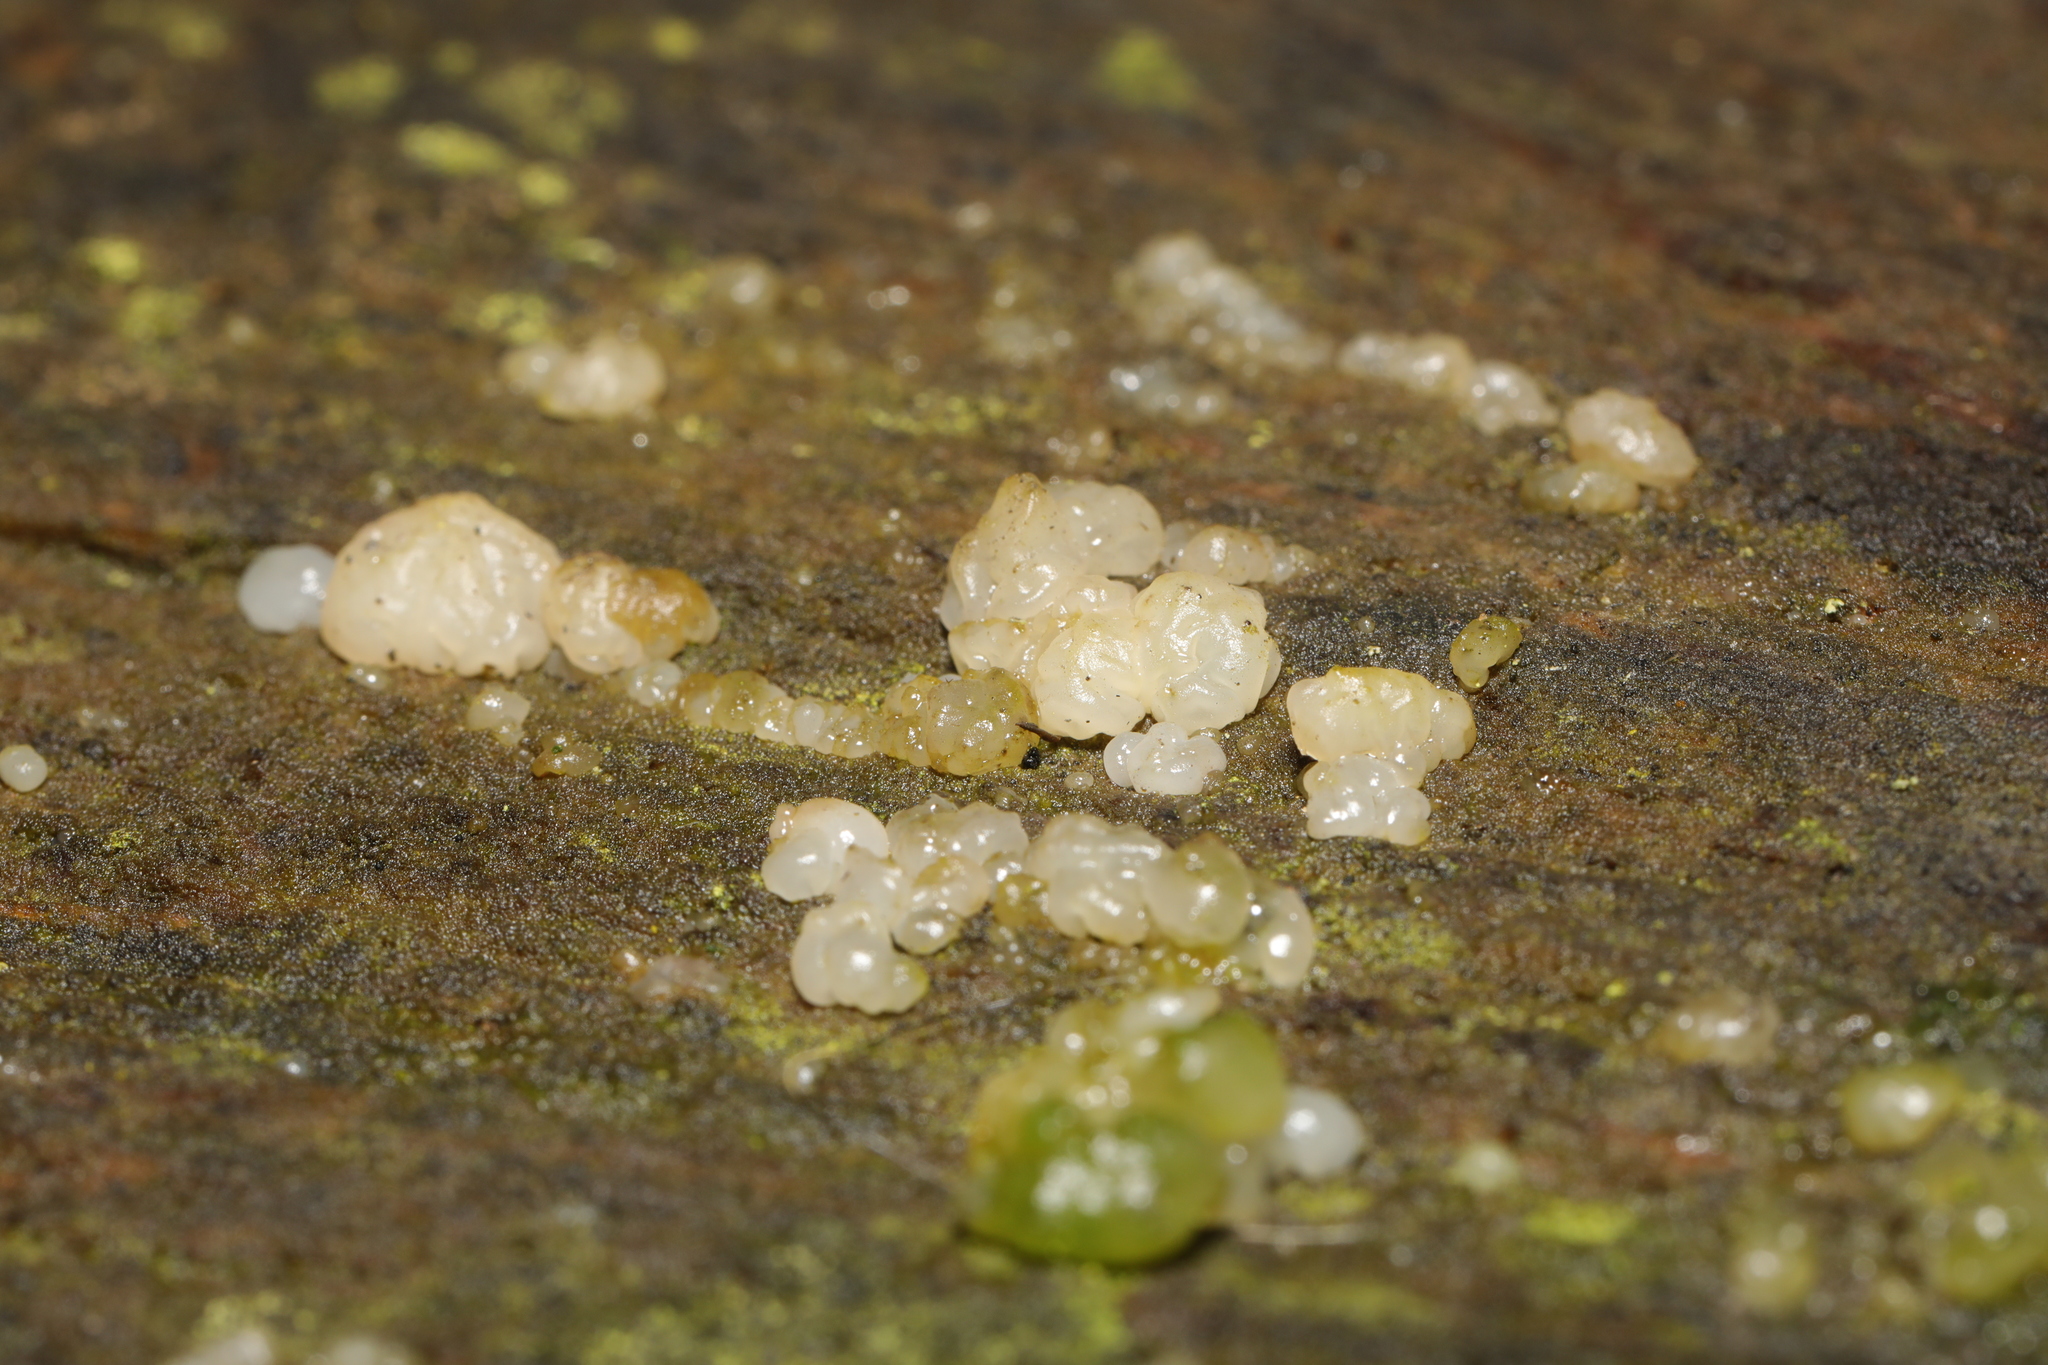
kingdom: Fungi
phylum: Basidiomycota
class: Agaricomycetes
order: Auriculariales
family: Hyaloriaceae
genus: Myxarium
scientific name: Myxarium nucleatum
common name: Crystal brain fungus
